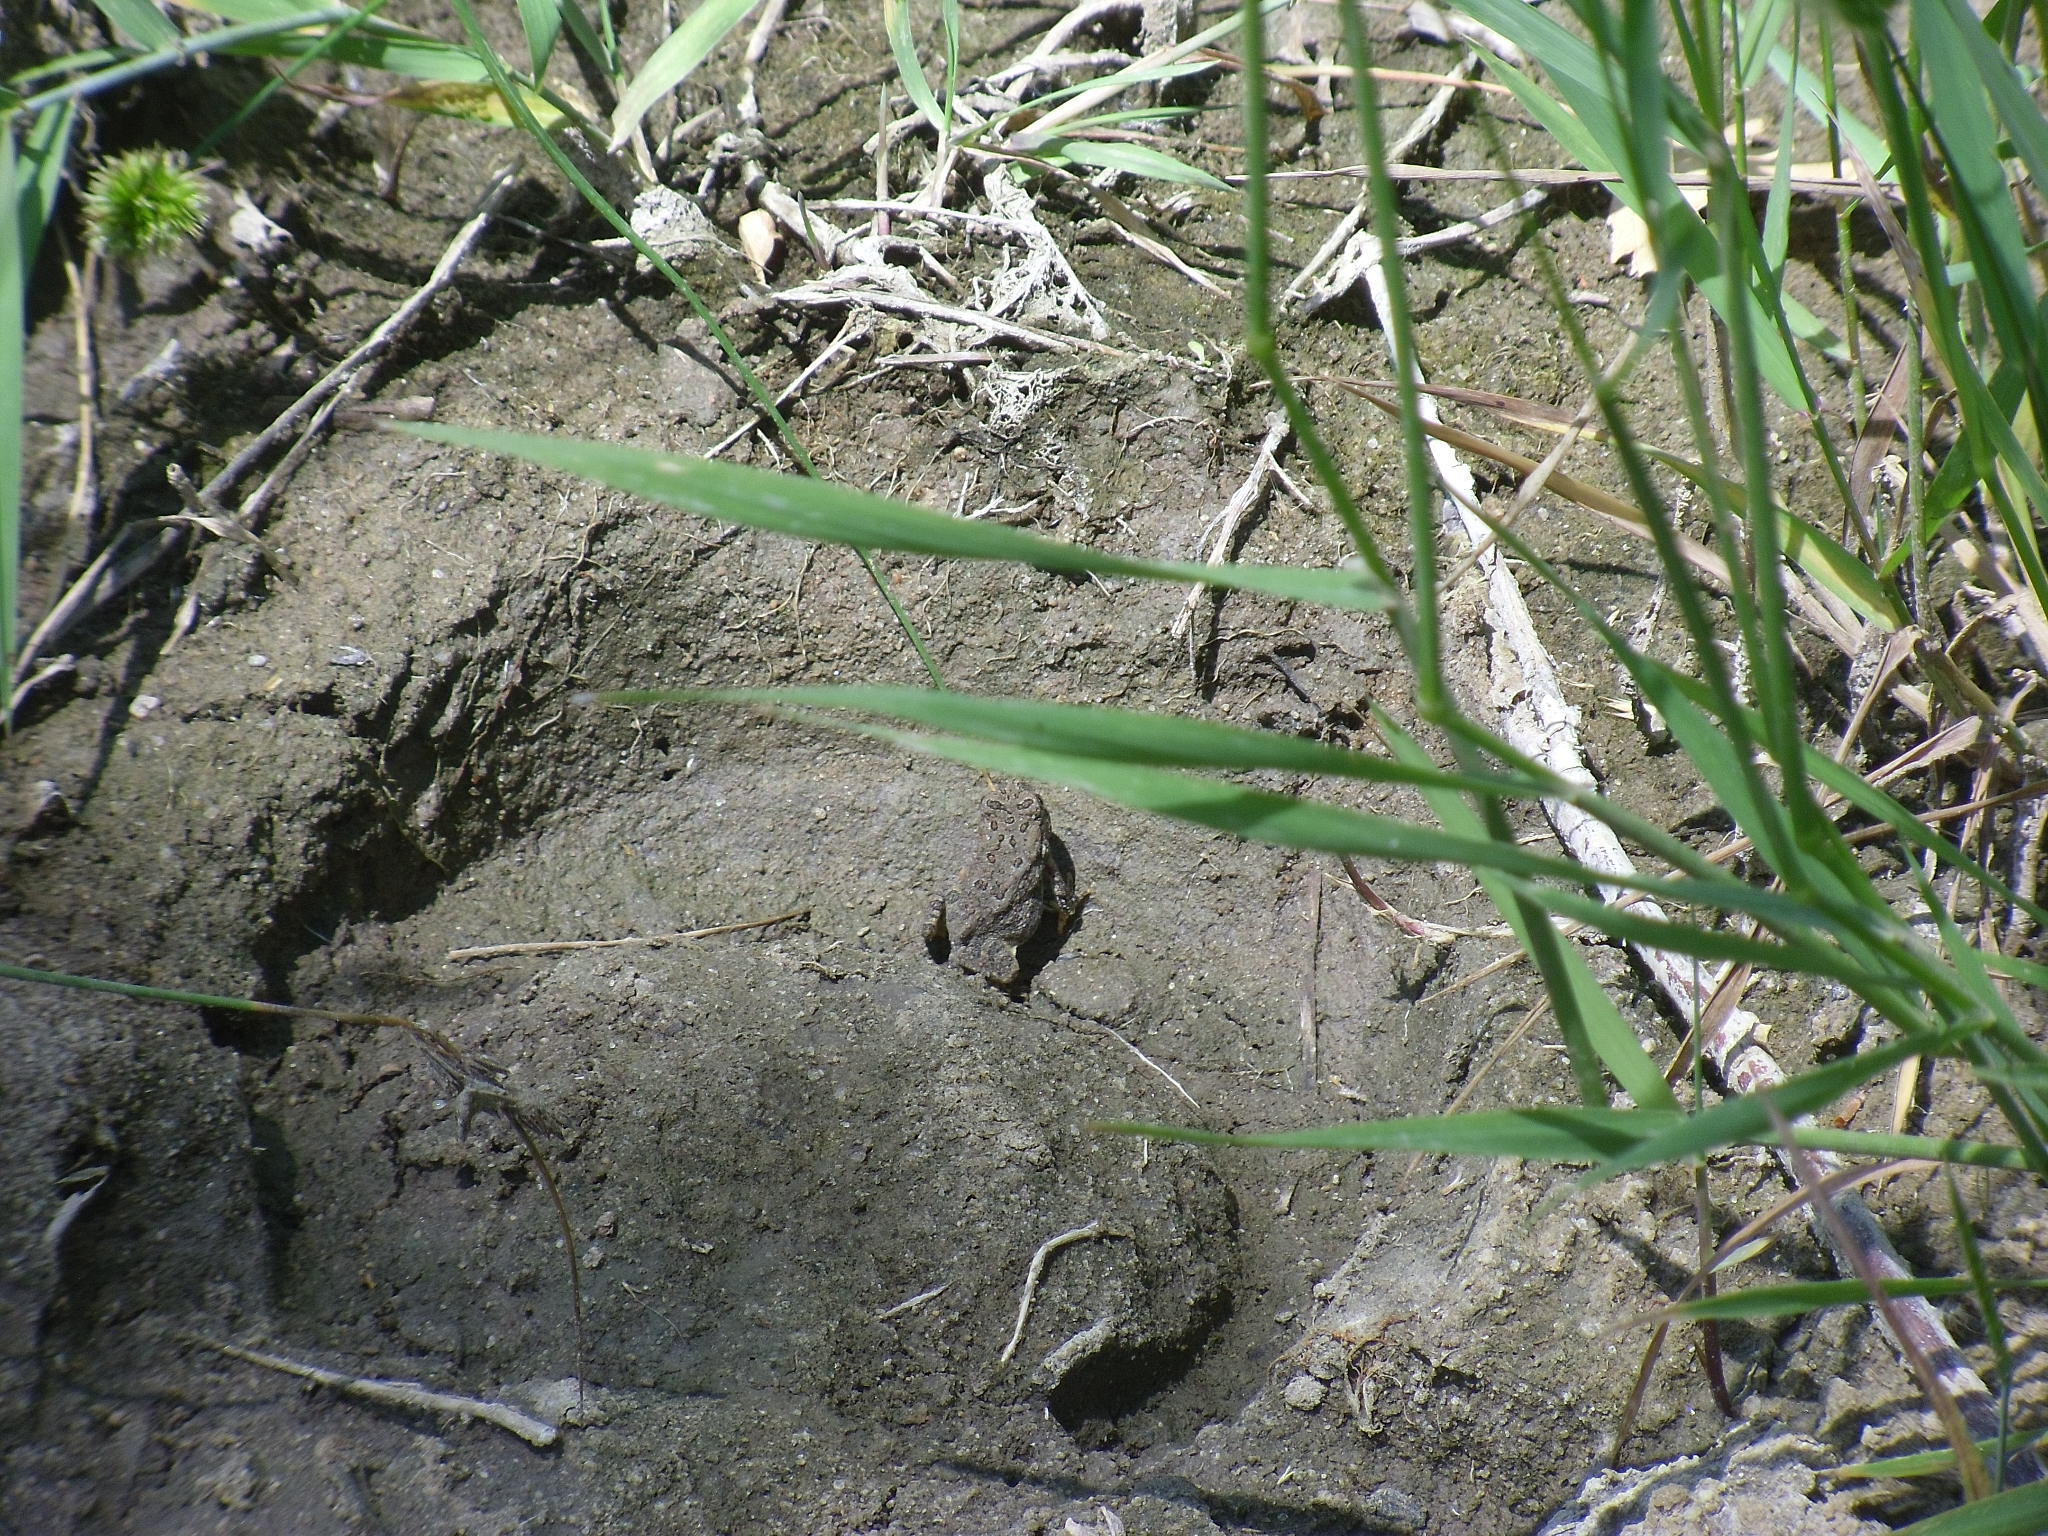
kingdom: Animalia
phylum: Chordata
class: Amphibia
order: Anura
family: Bufonidae
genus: Anaxyrus
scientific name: Anaxyrus woodhousii
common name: Woodhouse's toad
